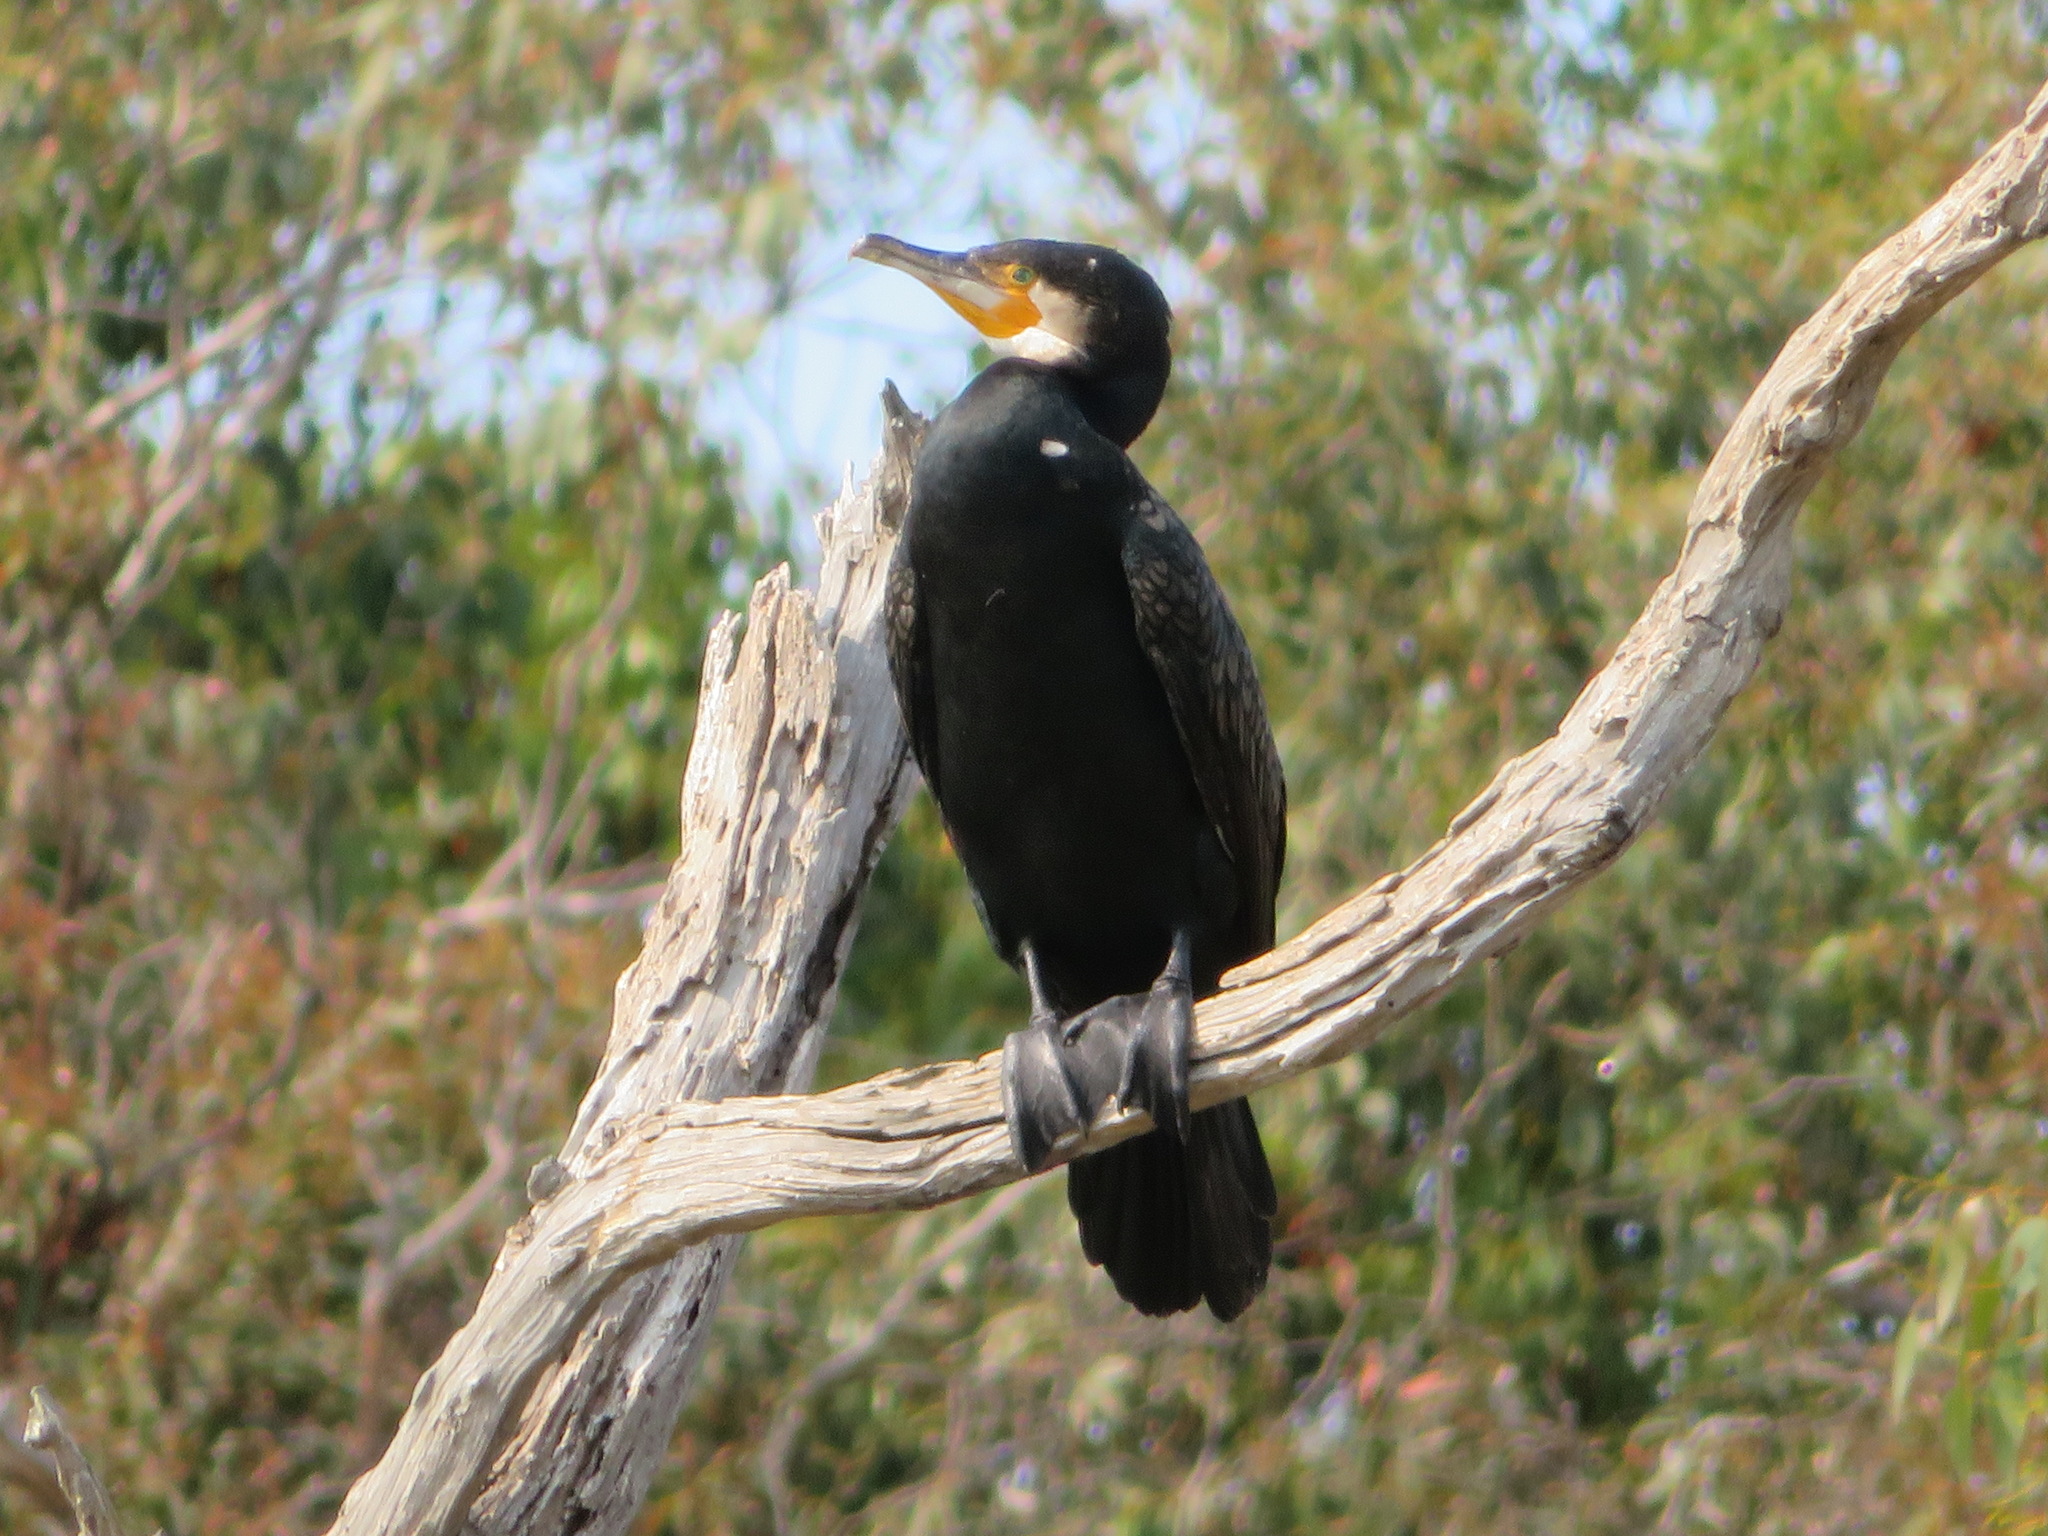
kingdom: Animalia
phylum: Chordata
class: Aves
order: Suliformes
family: Phalacrocoracidae
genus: Phalacrocorax
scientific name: Phalacrocorax carbo
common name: Great cormorant
